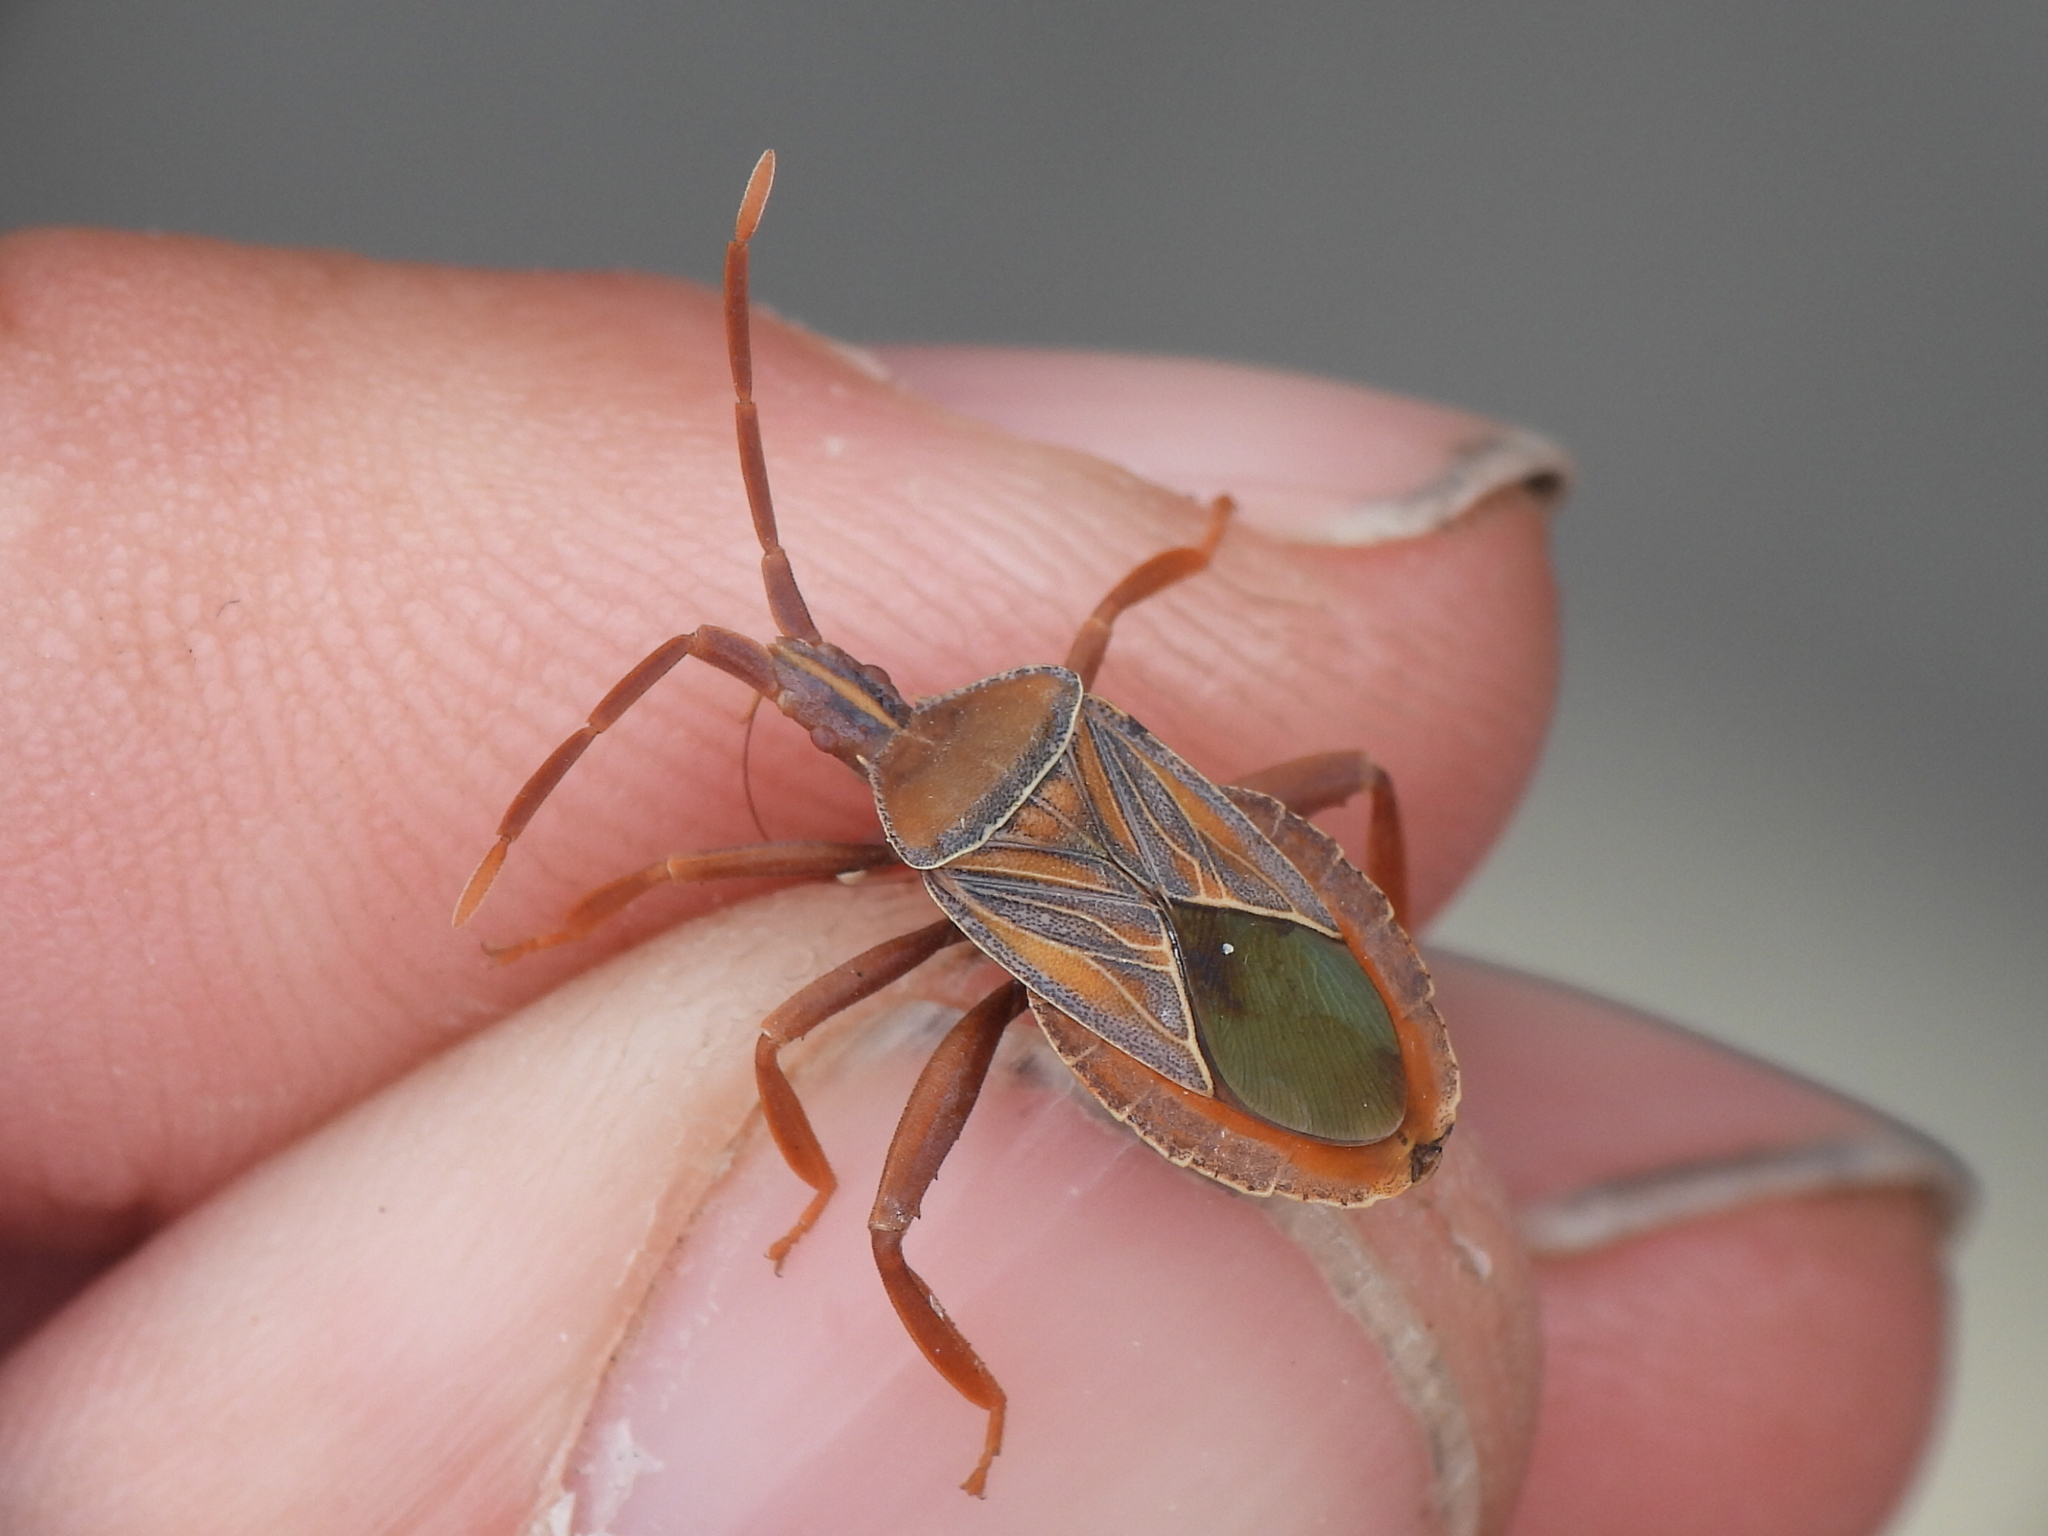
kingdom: Animalia
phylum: Arthropoda
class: Insecta
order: Hemiptera
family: Coreidae
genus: Chelinidea
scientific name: Chelinidea tabulata
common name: Prickly pear bug
